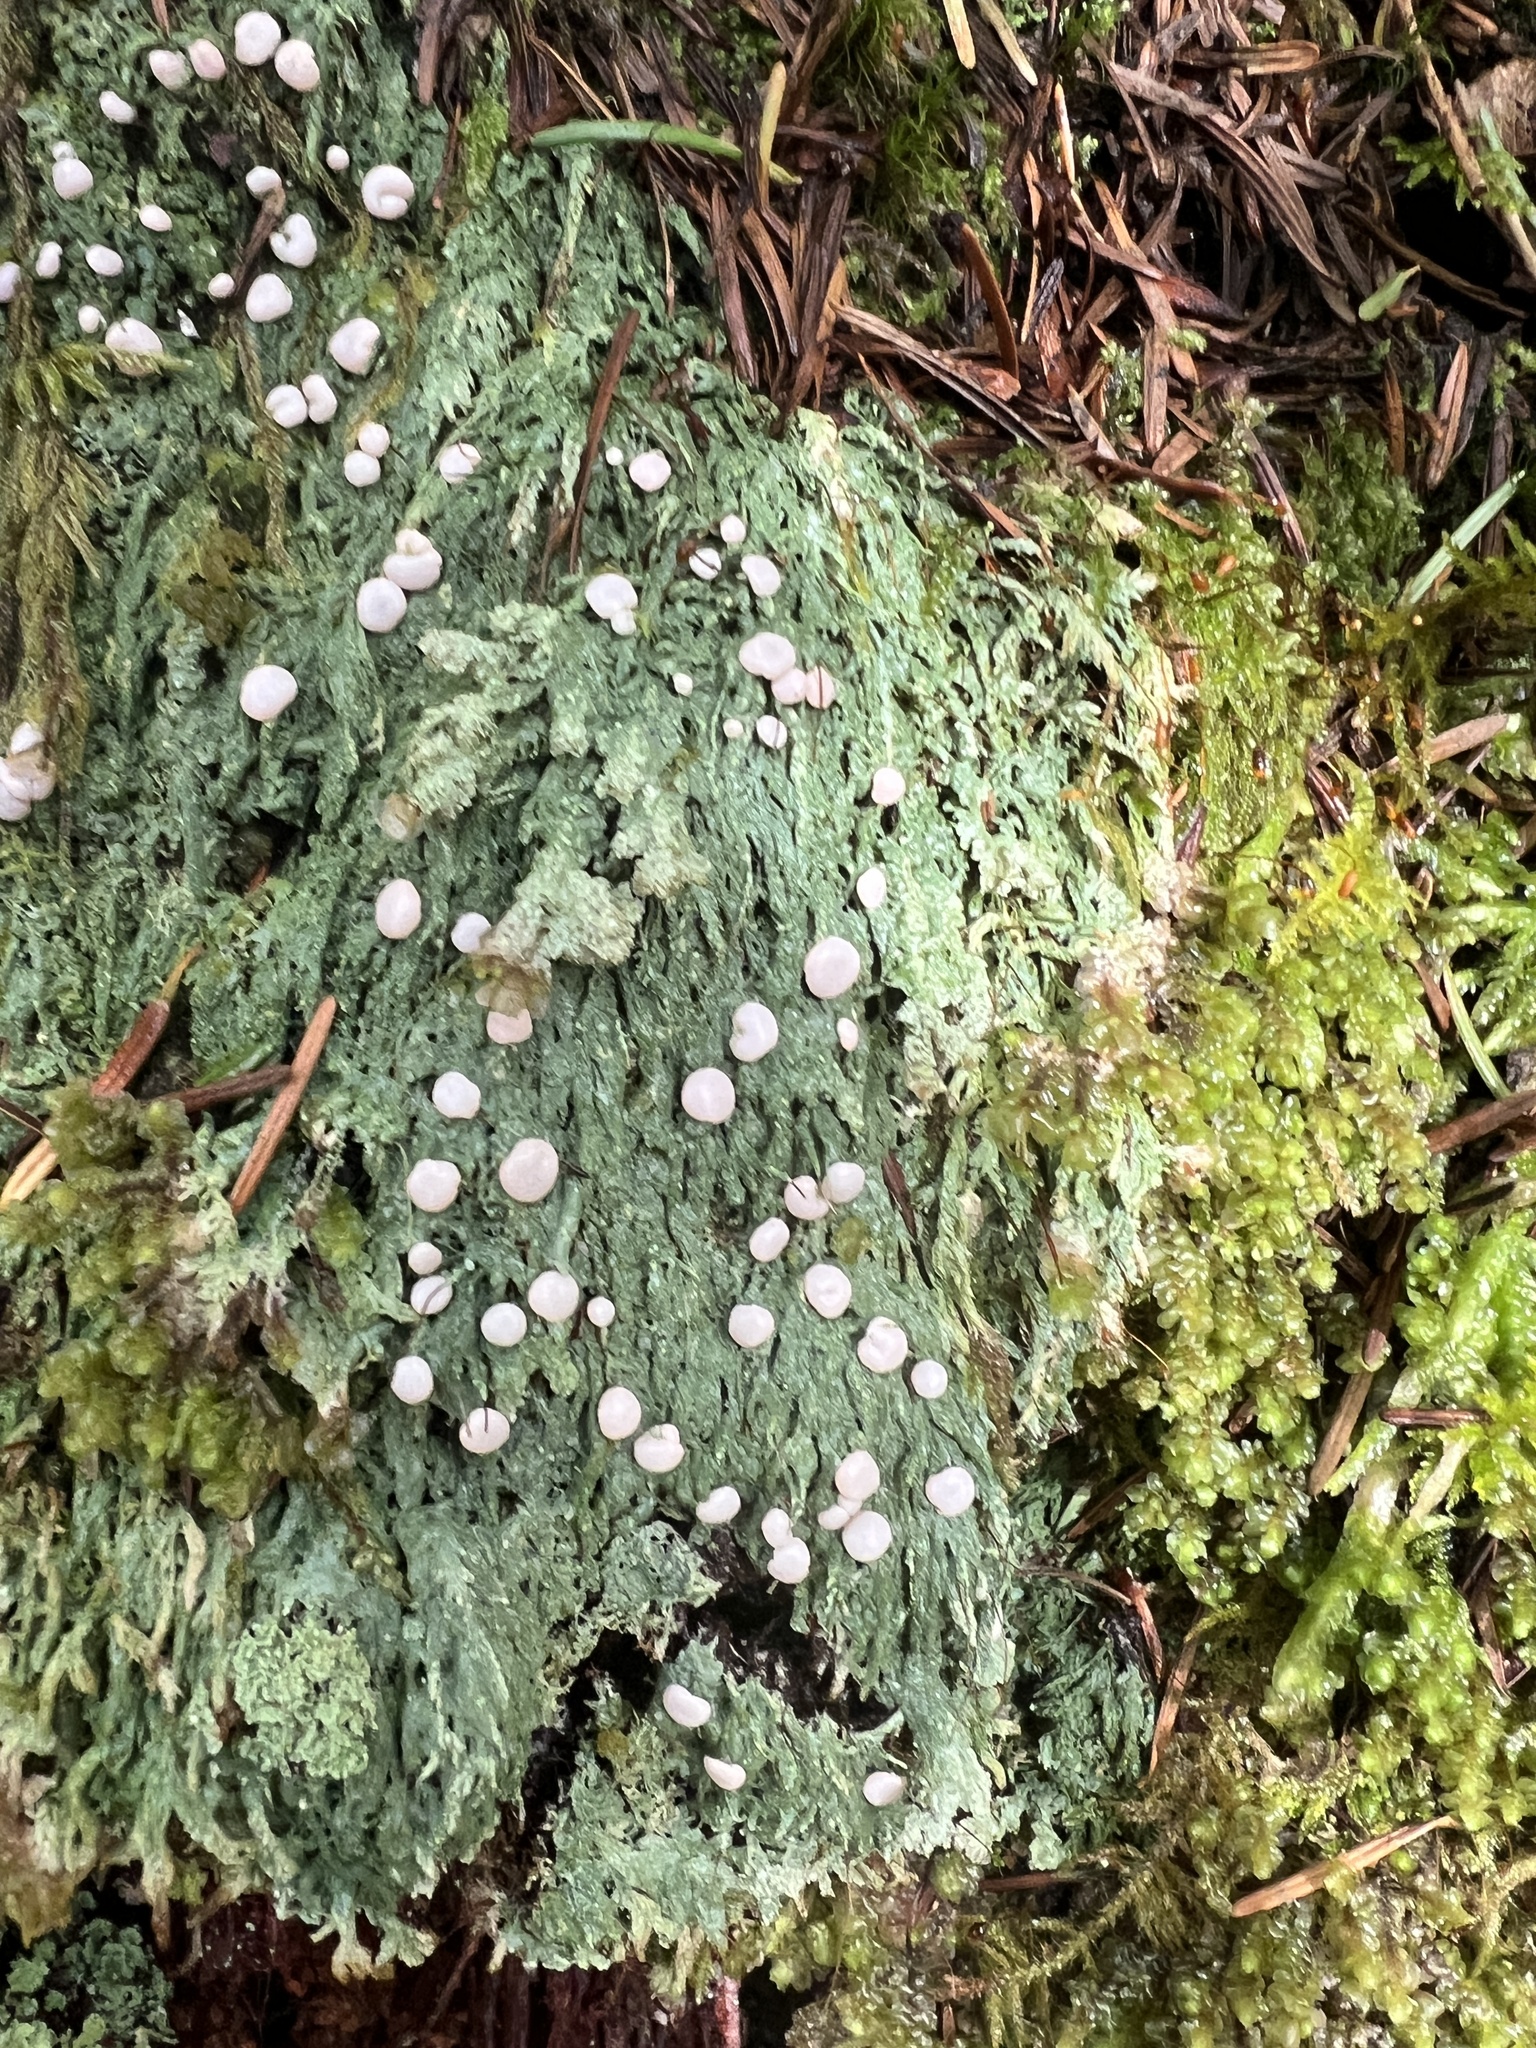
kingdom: Fungi
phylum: Ascomycota
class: Lecanoromycetes
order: Pertusariales
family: Icmadophilaceae
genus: Icmadophila
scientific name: Icmadophila ericetorum
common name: Candy lichen
